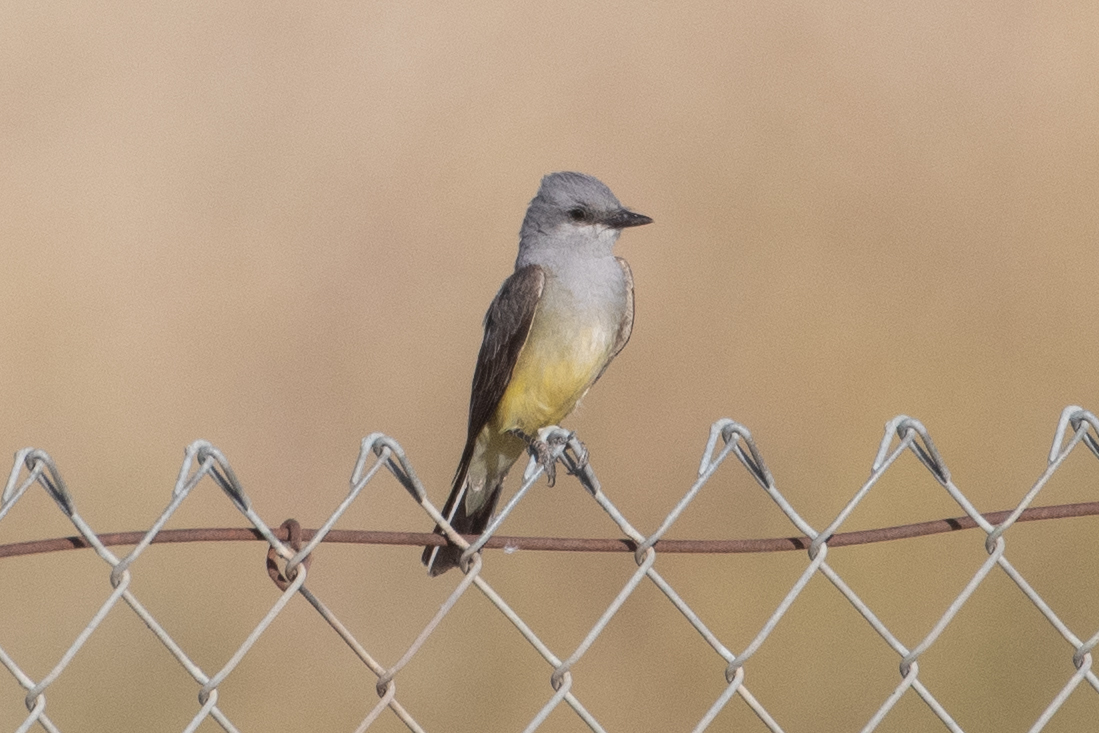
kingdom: Animalia
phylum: Chordata
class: Aves
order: Passeriformes
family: Tyrannidae
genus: Tyrannus
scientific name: Tyrannus verticalis
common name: Western kingbird
